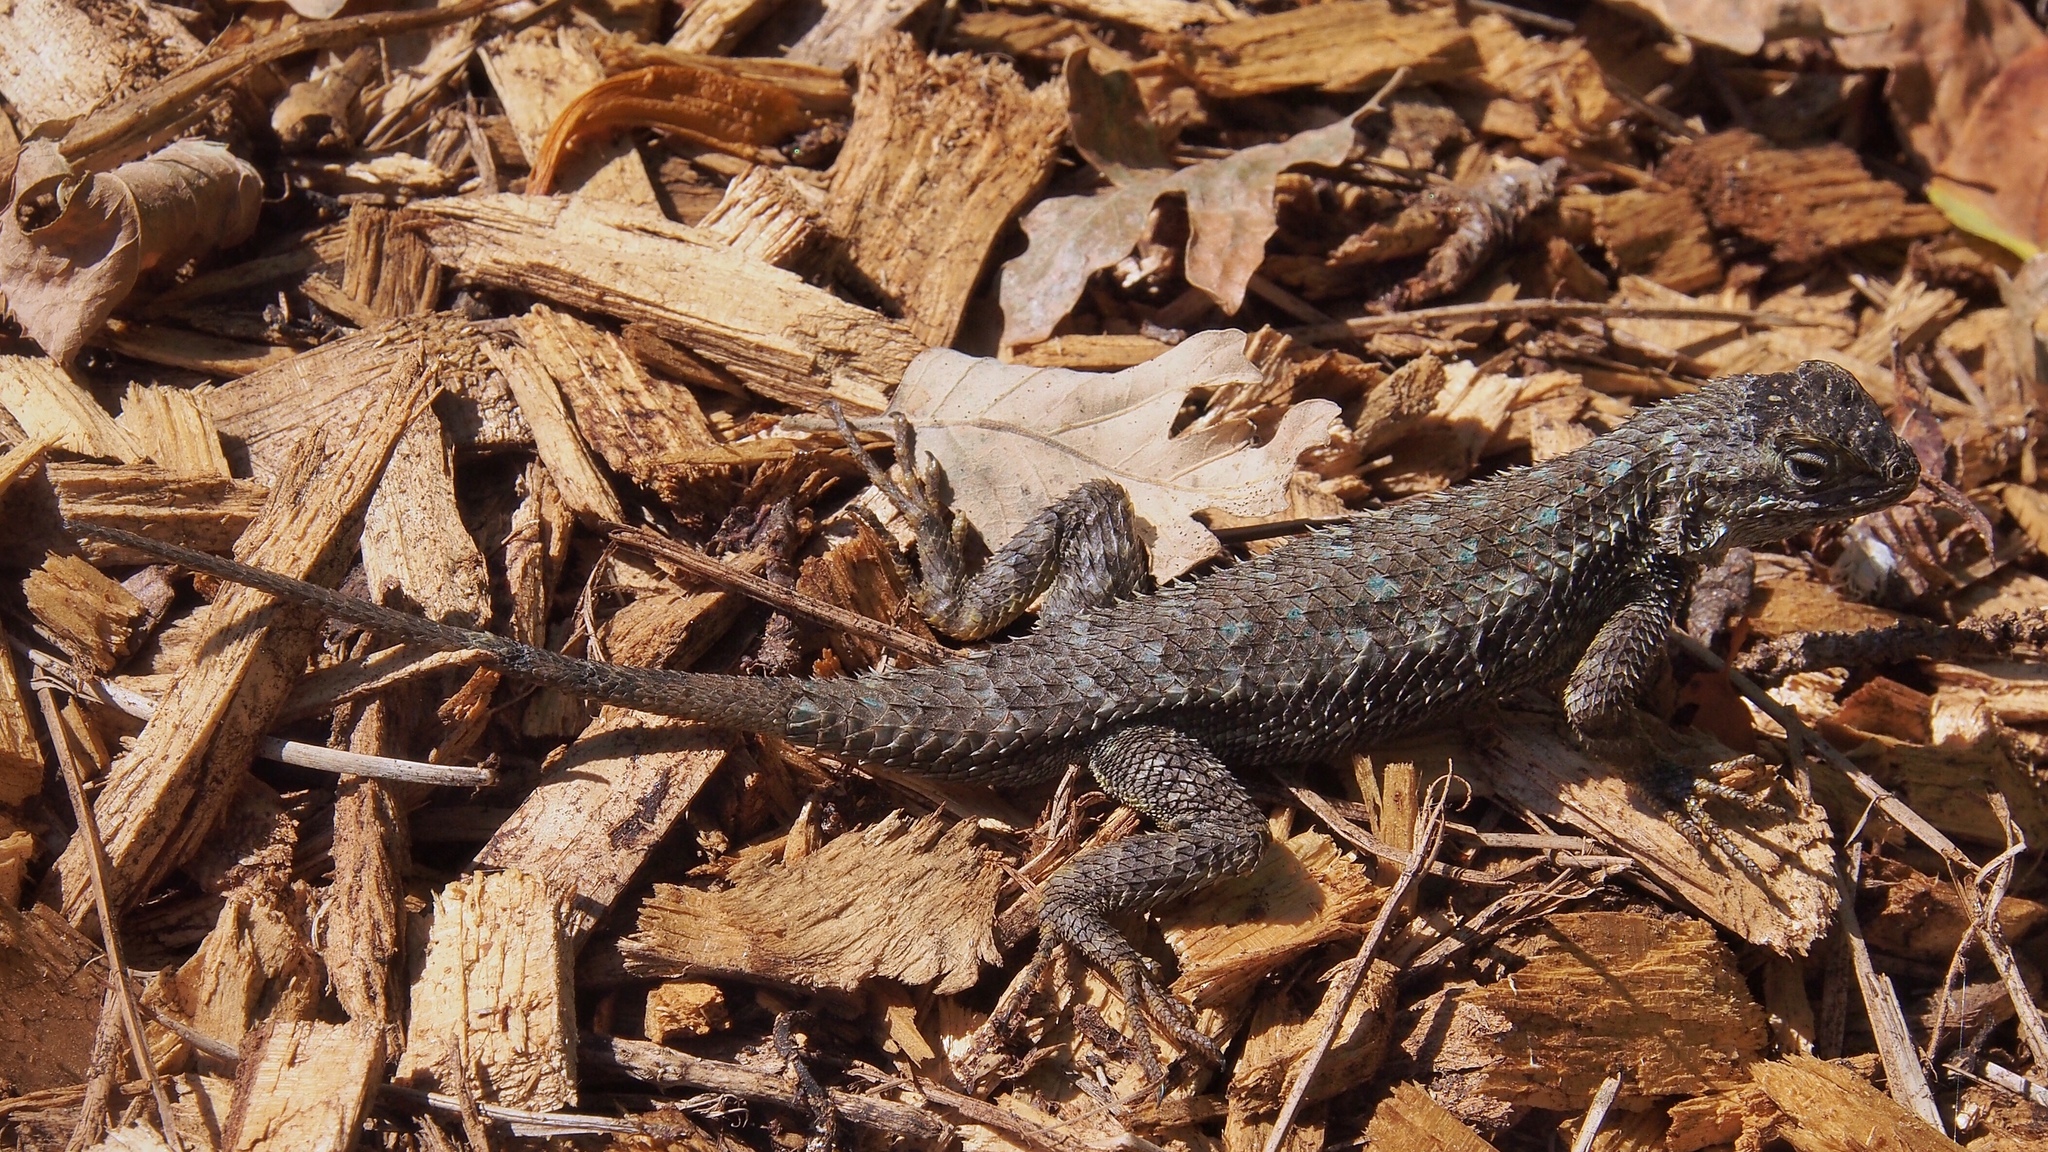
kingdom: Animalia
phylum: Chordata
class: Squamata
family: Phrynosomatidae
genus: Sceloporus
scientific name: Sceloporus occidentalis
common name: Western fence lizard
